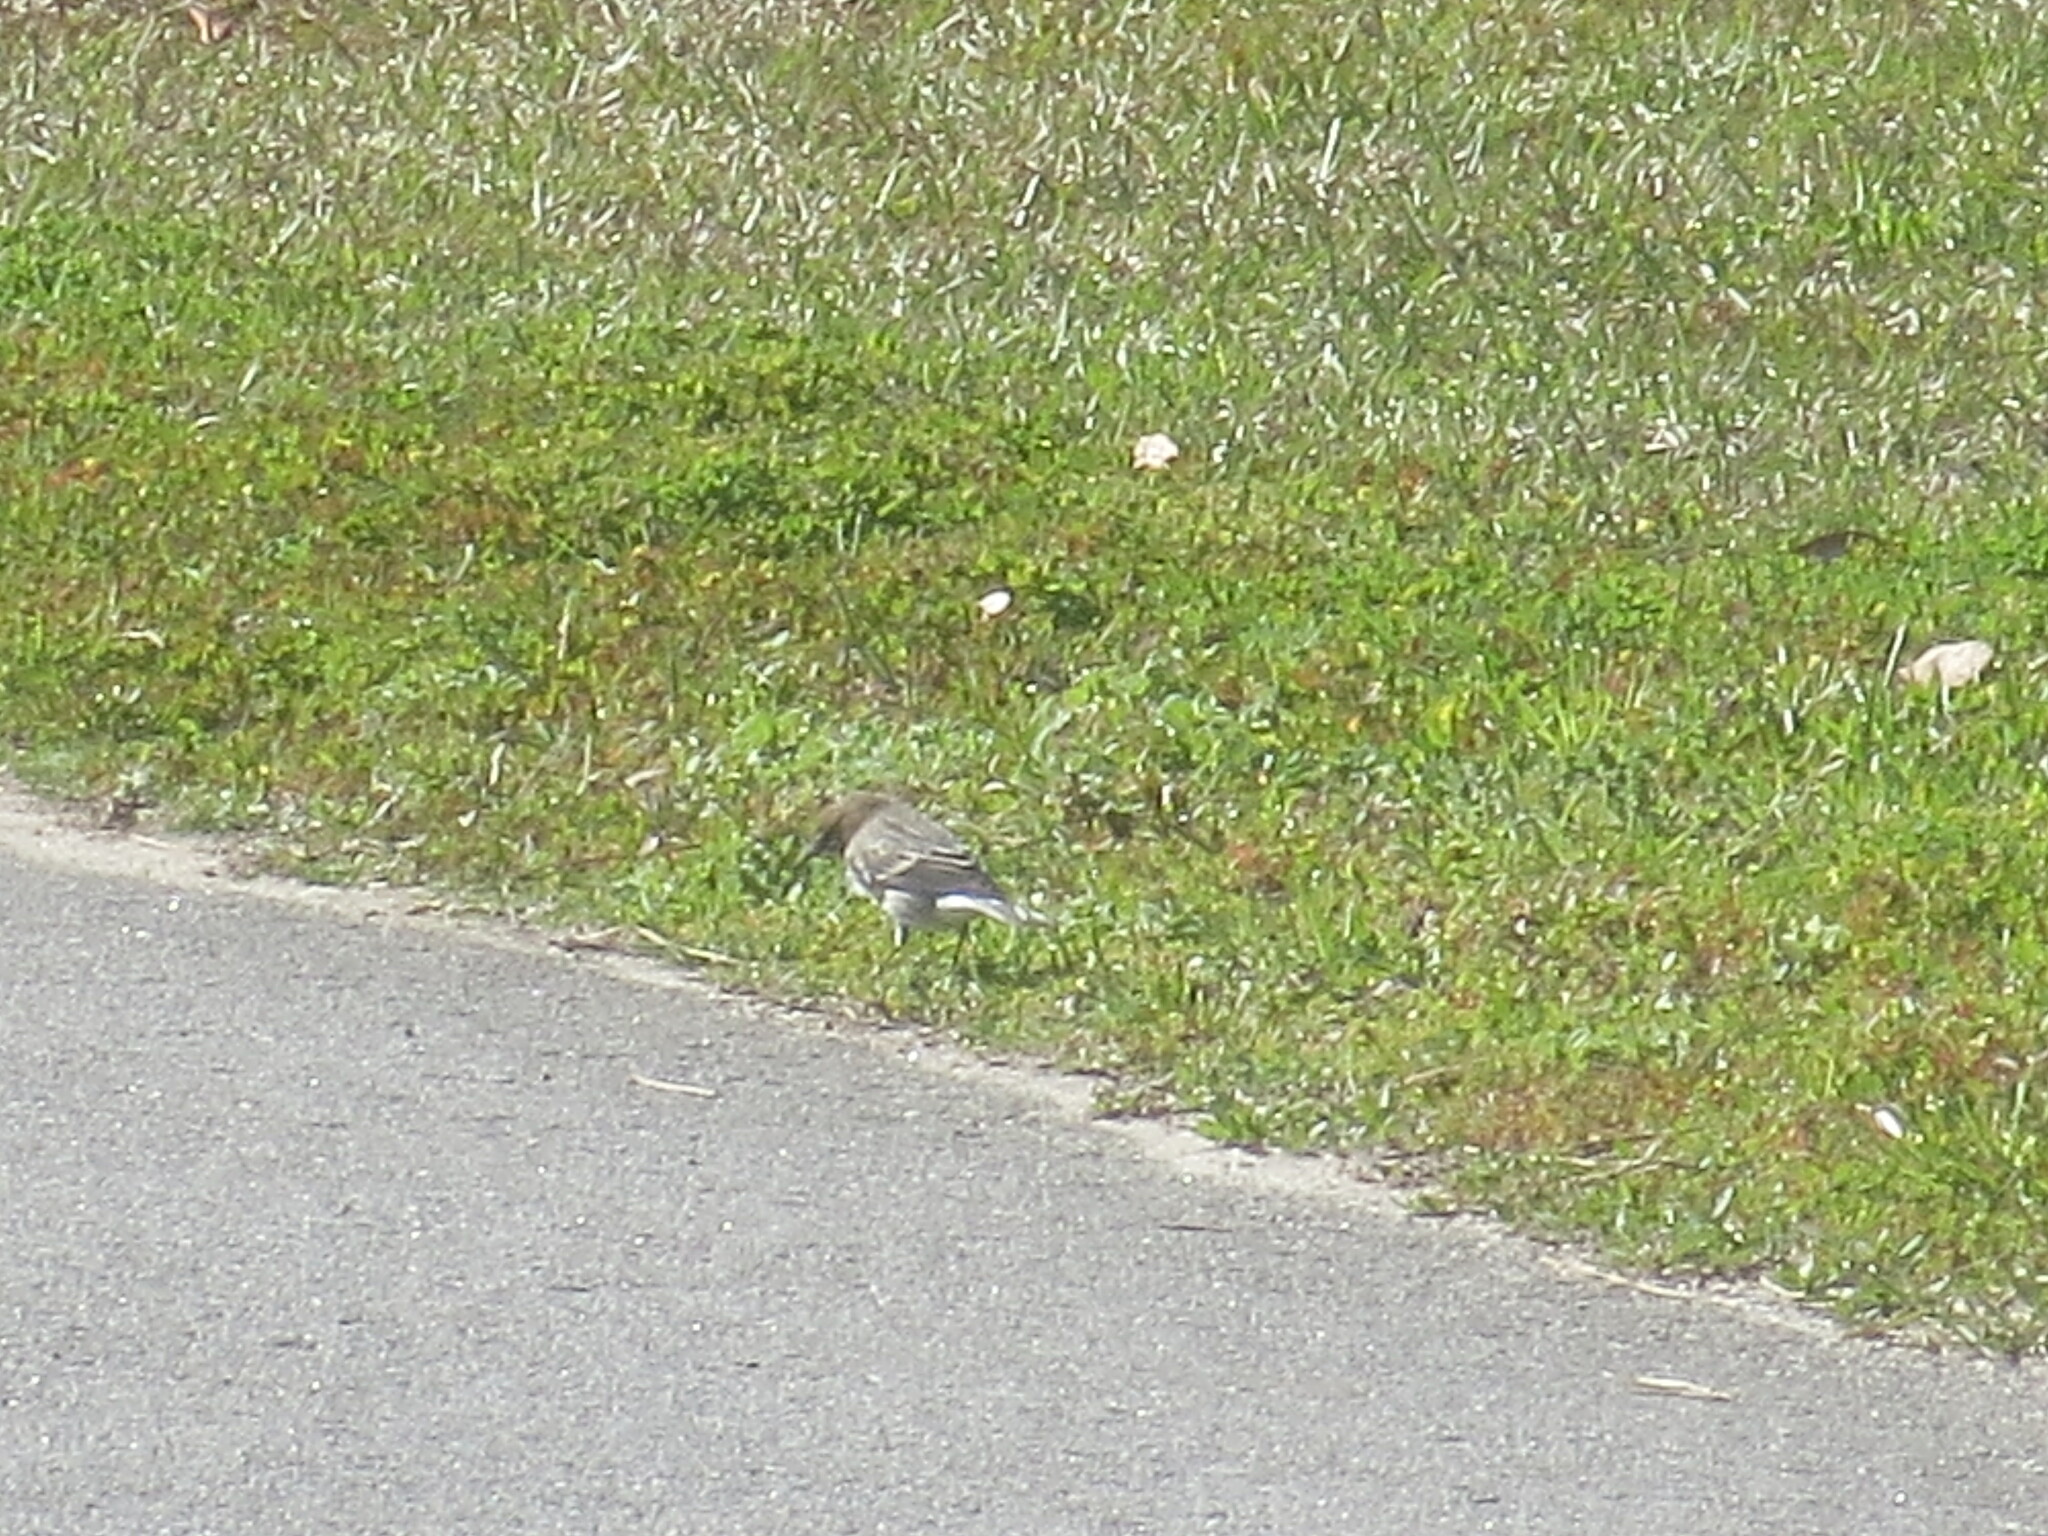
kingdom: Animalia
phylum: Chordata
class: Aves
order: Passeriformes
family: Parulidae
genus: Setophaga
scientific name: Setophaga coronata
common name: Myrtle warbler
